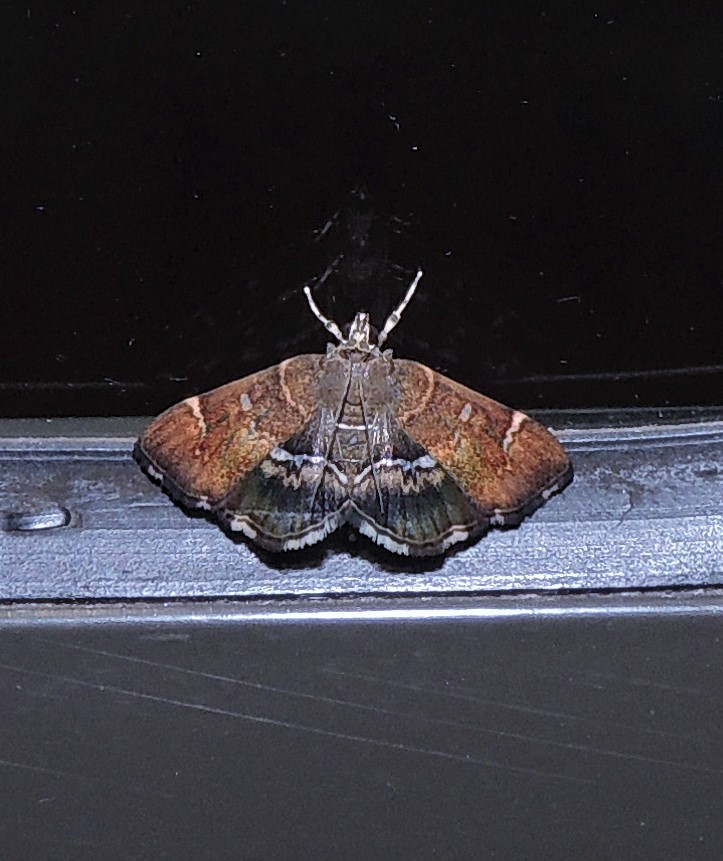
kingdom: Animalia
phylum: Arthropoda
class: Insecta
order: Lepidoptera
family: Crambidae
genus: Hymenia
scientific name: Hymenia perspectalis
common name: Spotted beet webworm
